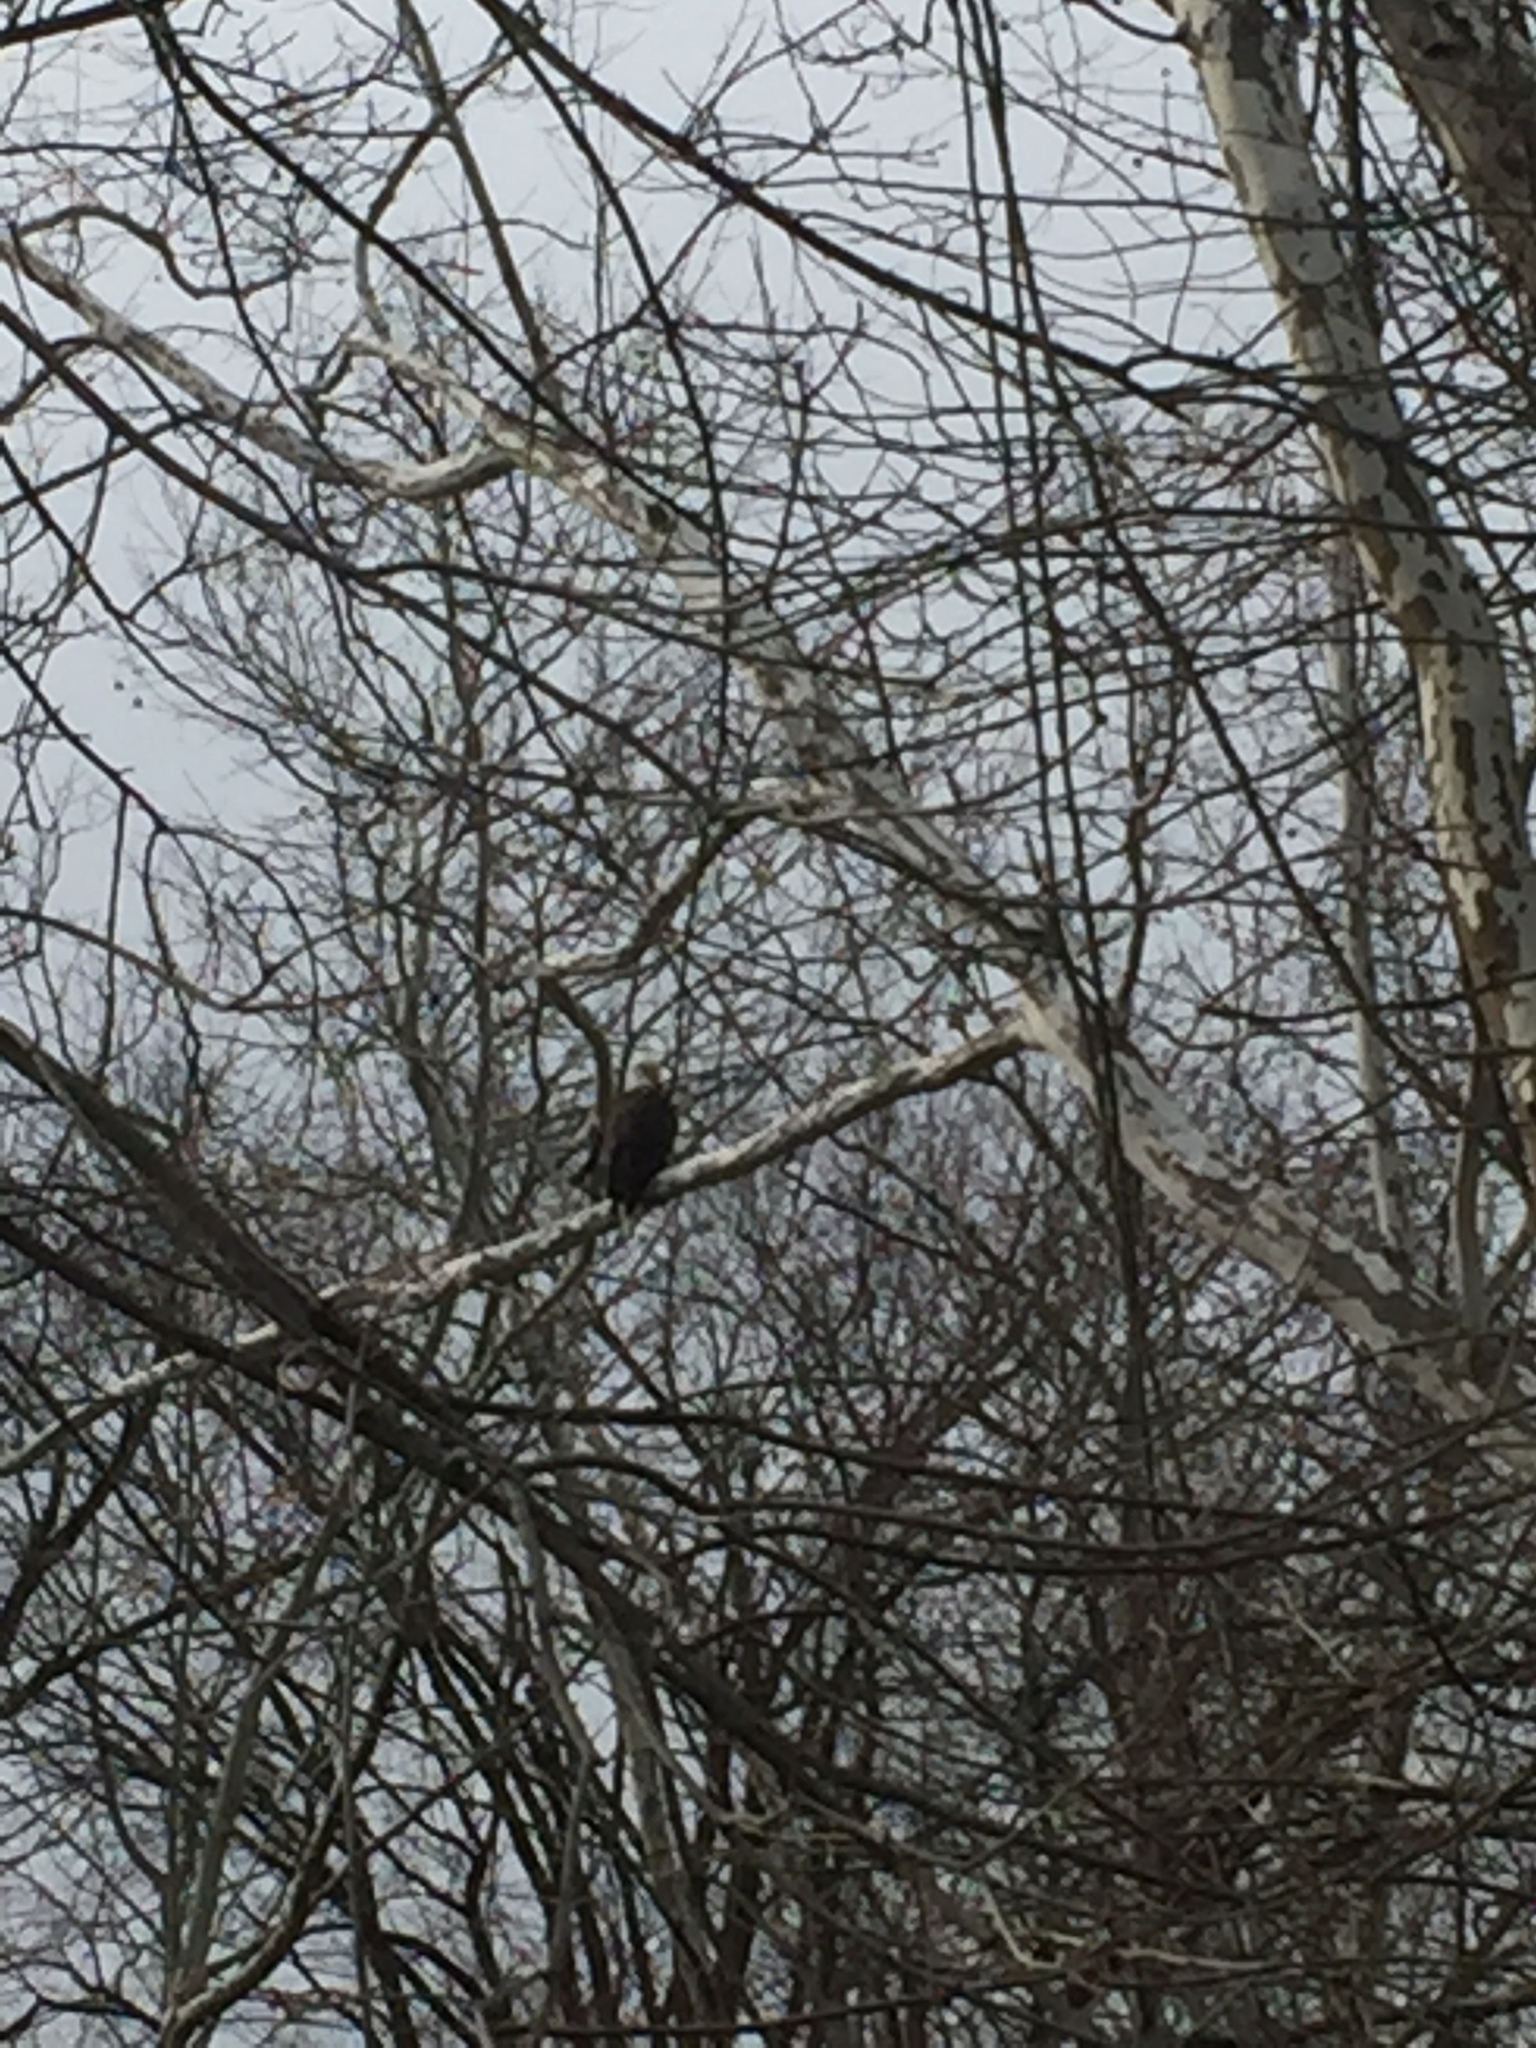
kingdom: Animalia
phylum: Chordata
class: Aves
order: Accipitriformes
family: Accipitridae
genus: Haliaeetus
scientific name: Haliaeetus leucocephalus
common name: Bald eagle
